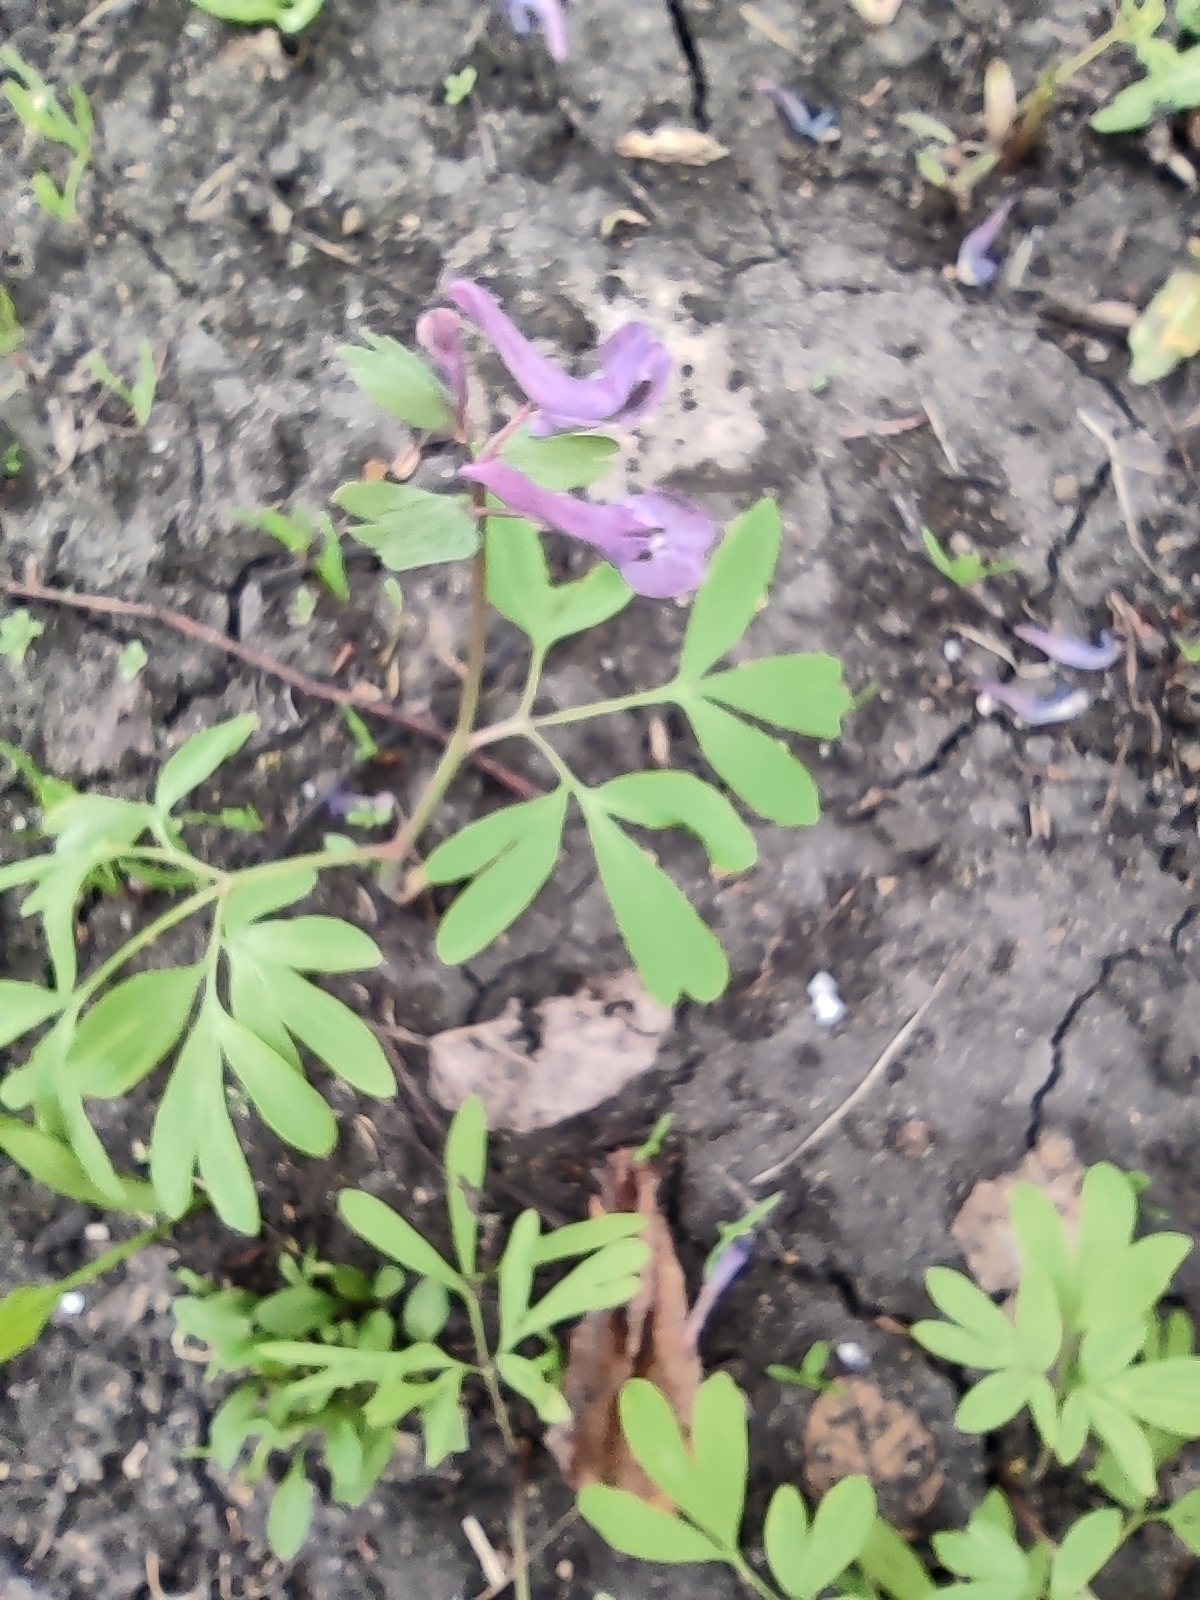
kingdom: Plantae
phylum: Tracheophyta
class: Magnoliopsida
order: Ranunculales
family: Papaveraceae
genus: Corydalis
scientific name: Corydalis solida
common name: Bird-in-a-bush
